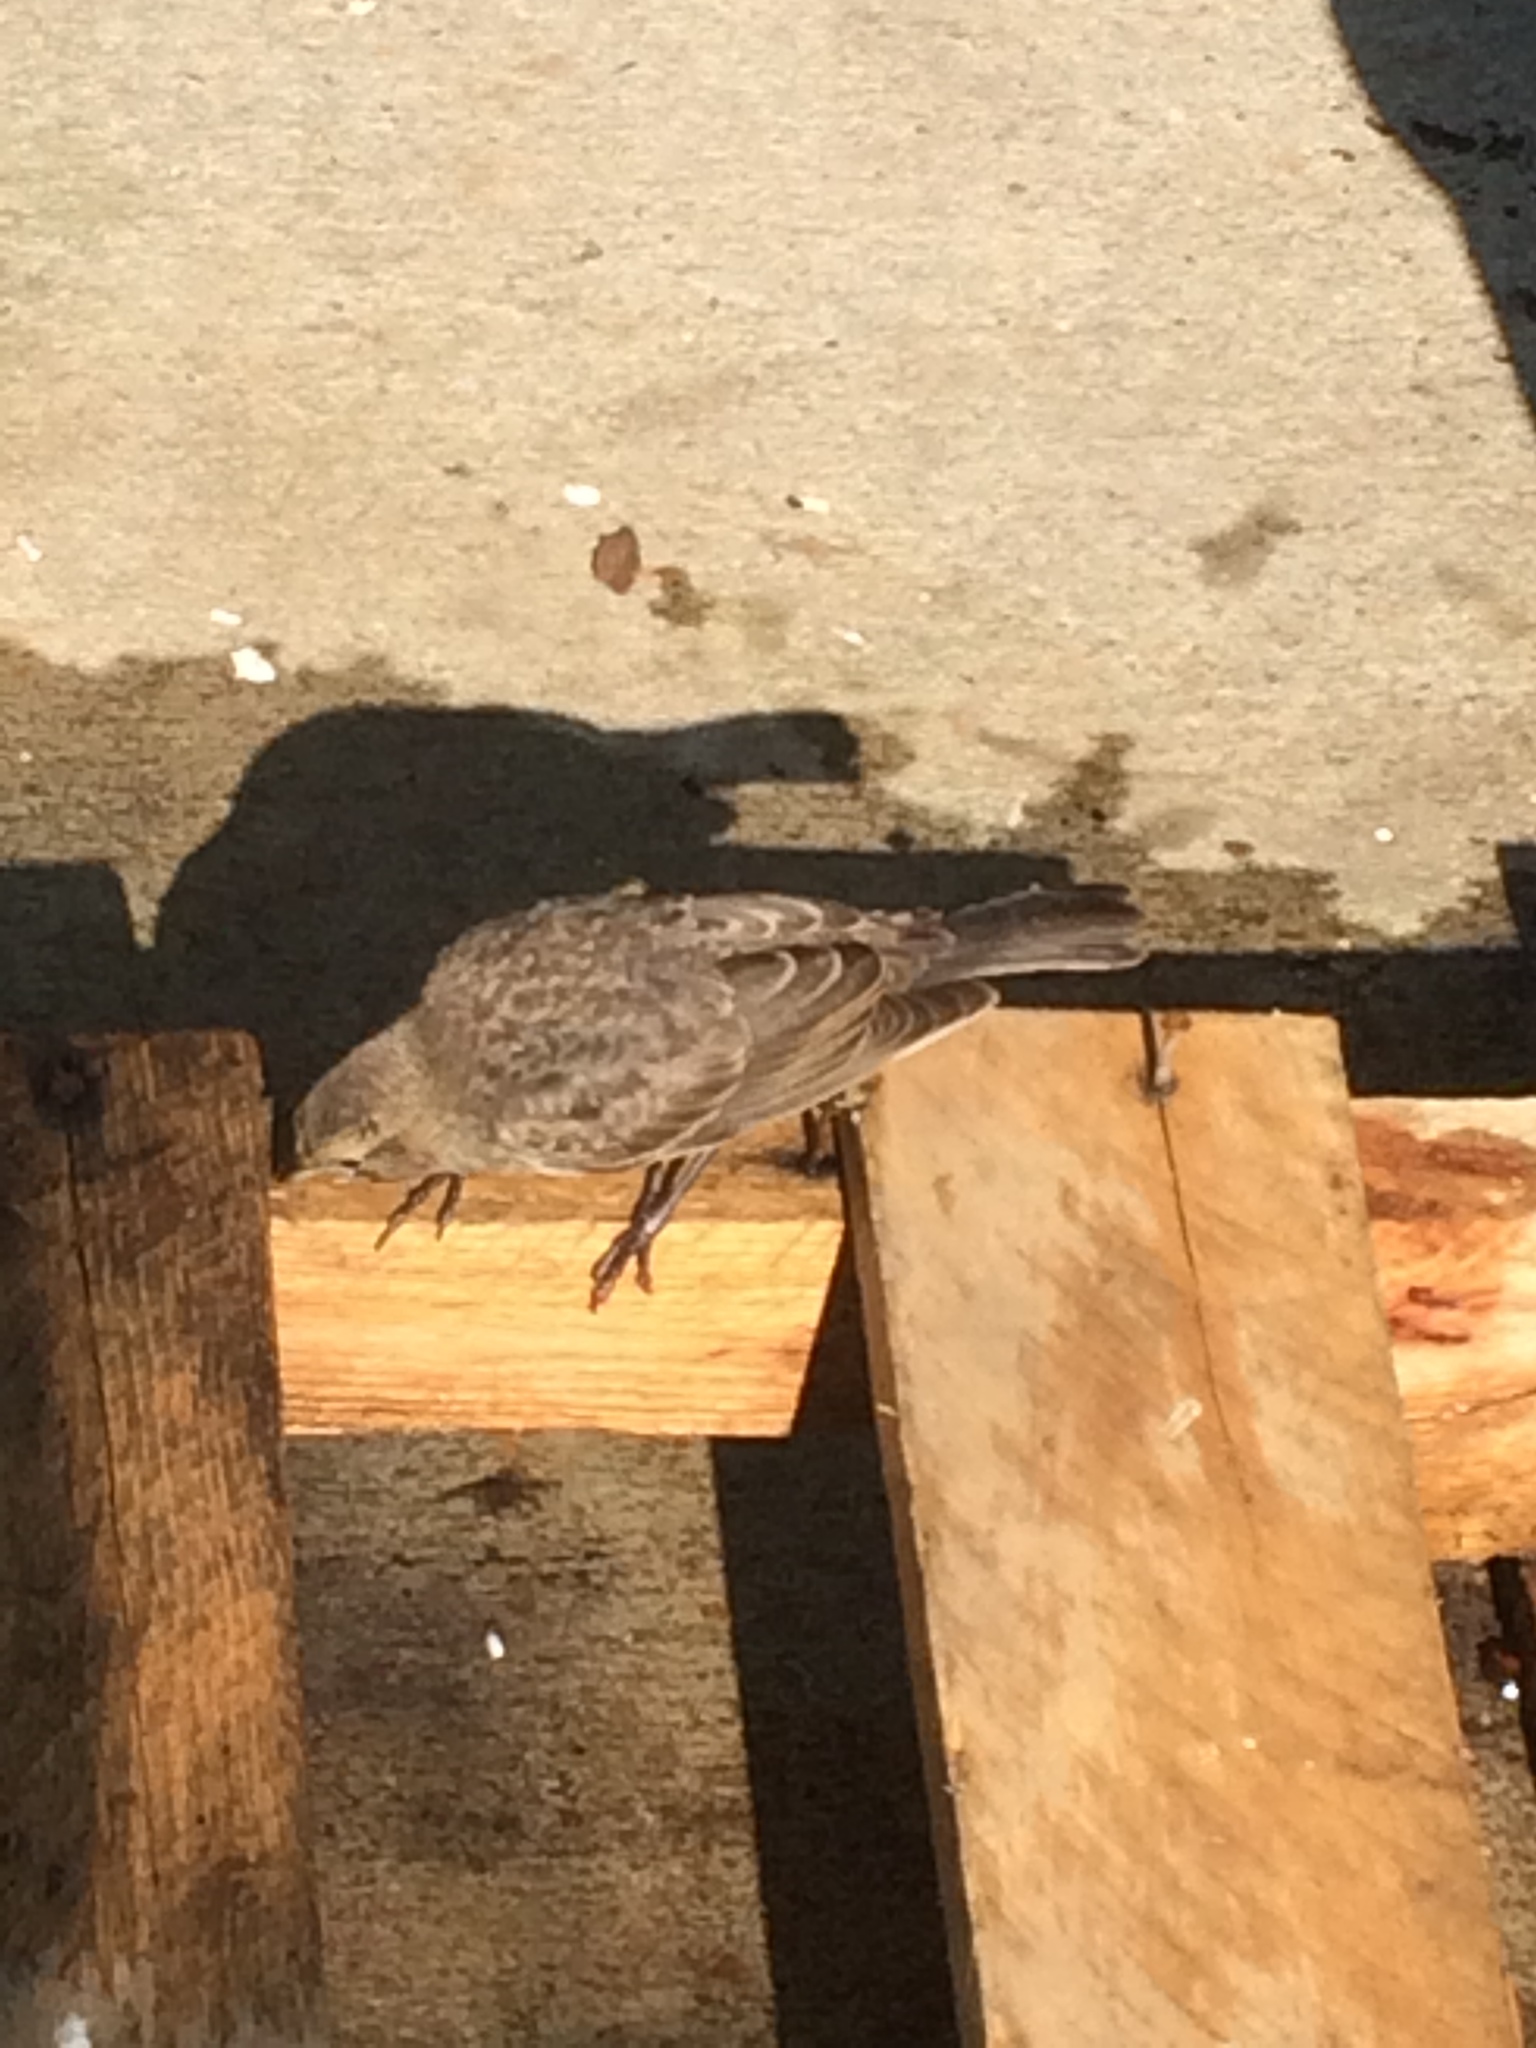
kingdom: Animalia
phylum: Chordata
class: Aves
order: Passeriformes
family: Icteridae
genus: Molothrus
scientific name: Molothrus ater
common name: Brown-headed cowbird
